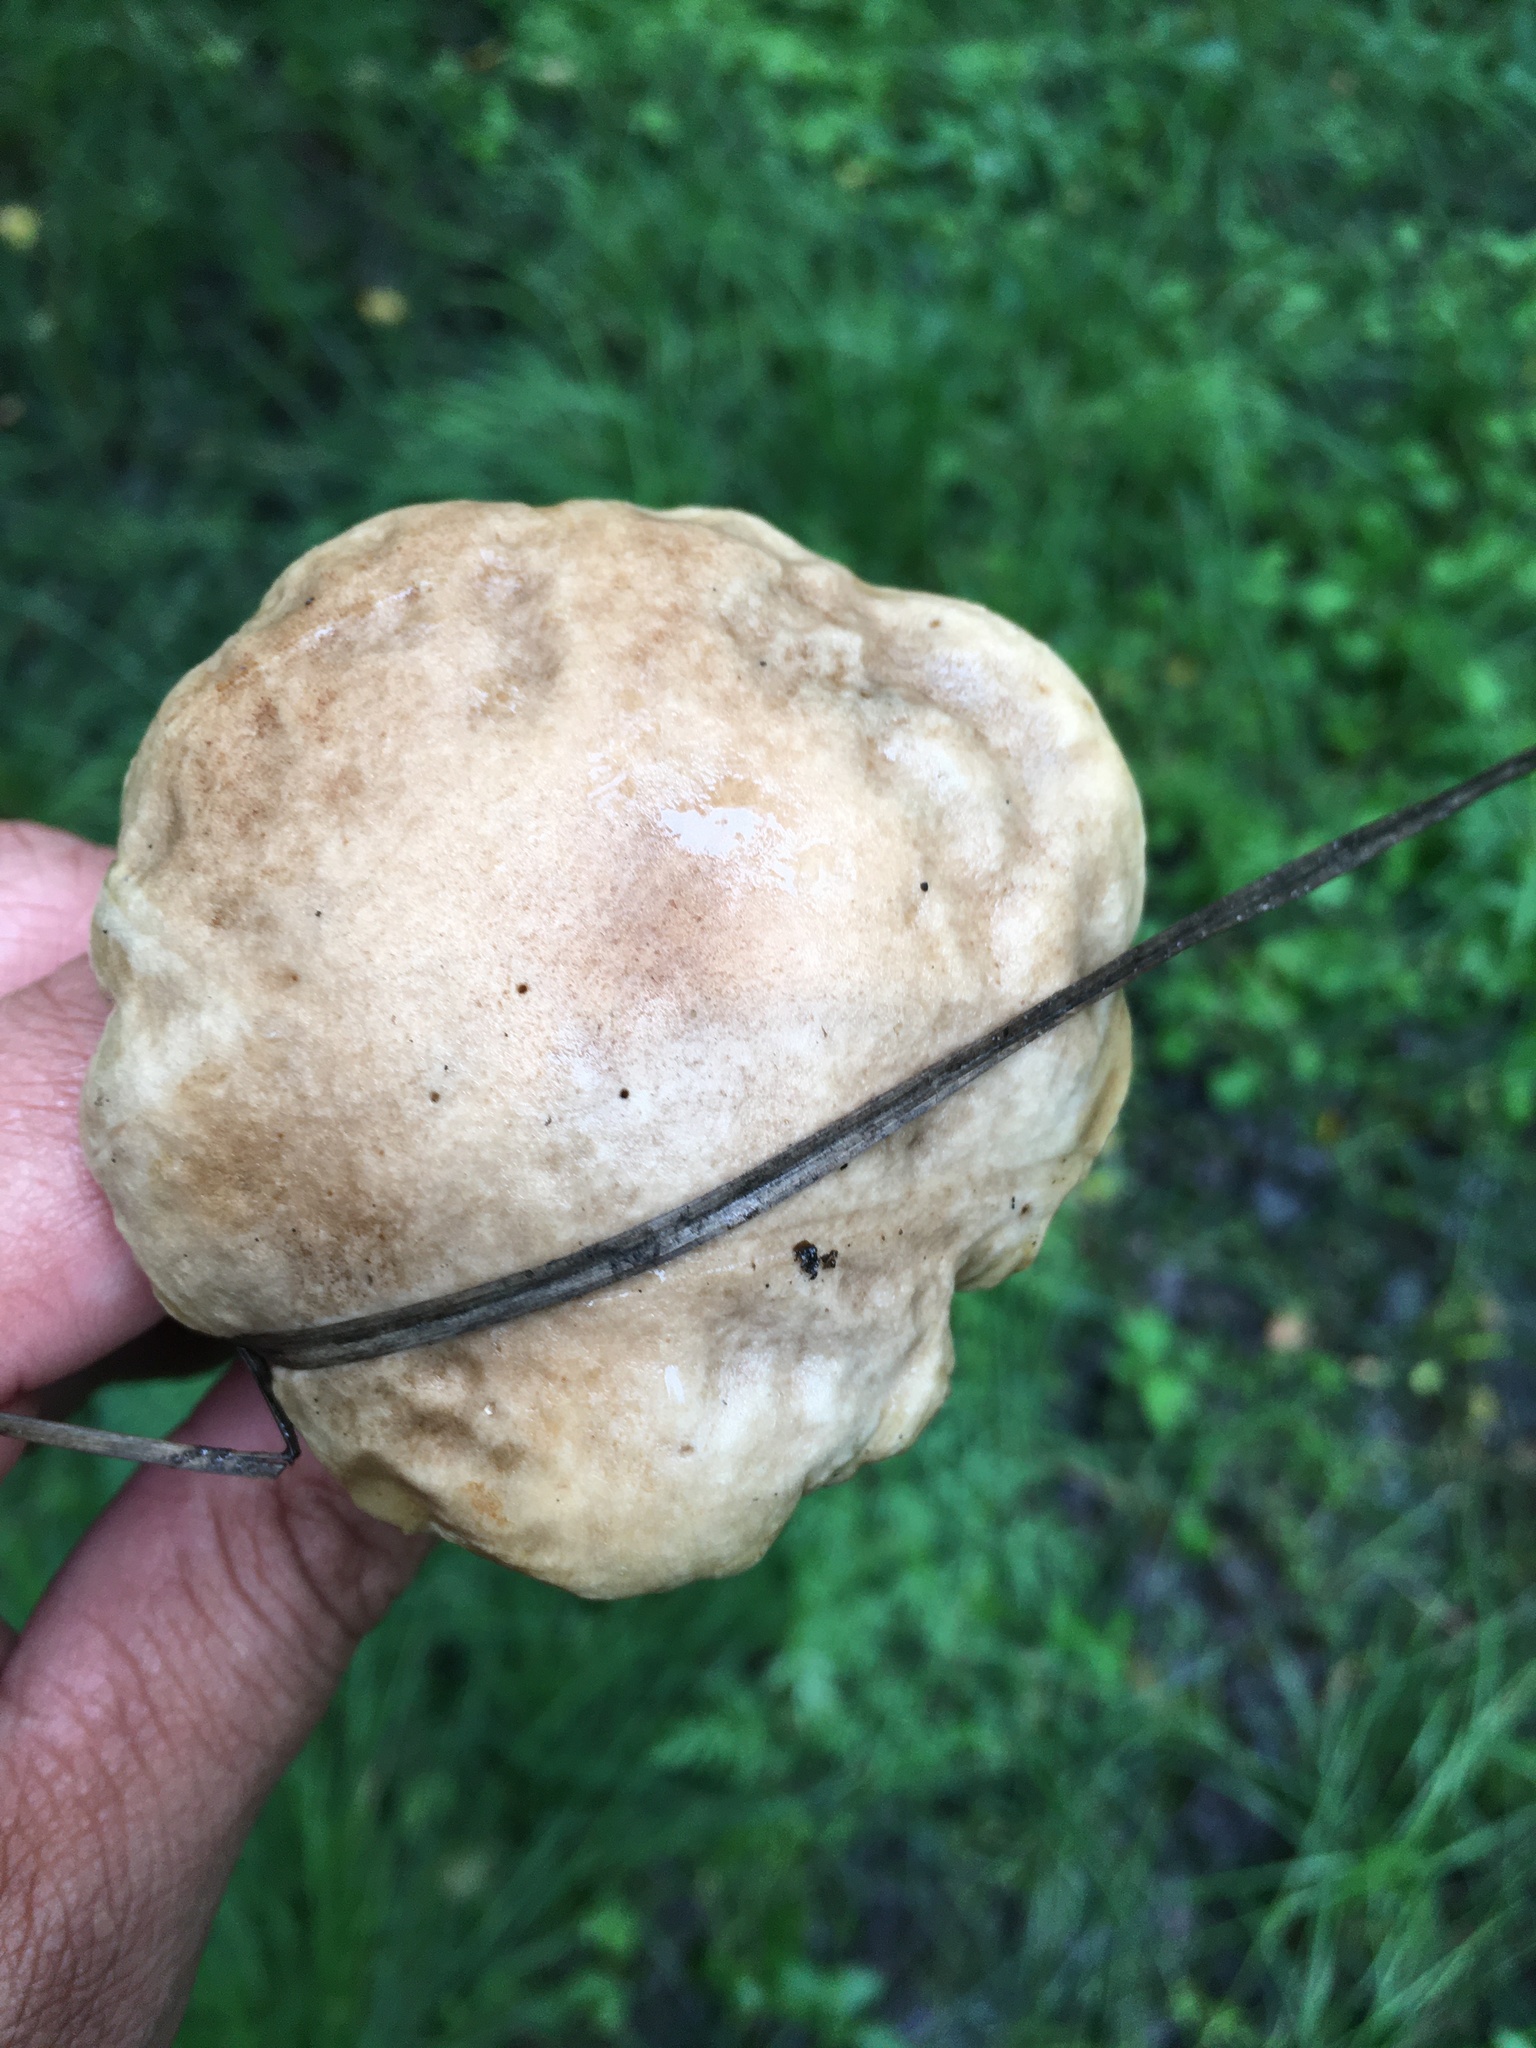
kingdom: Fungi
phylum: Basidiomycota
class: Agaricomycetes
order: Boletales
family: Boletaceae
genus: Leccinum
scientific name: Leccinum scabrum
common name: Blushing bolete
